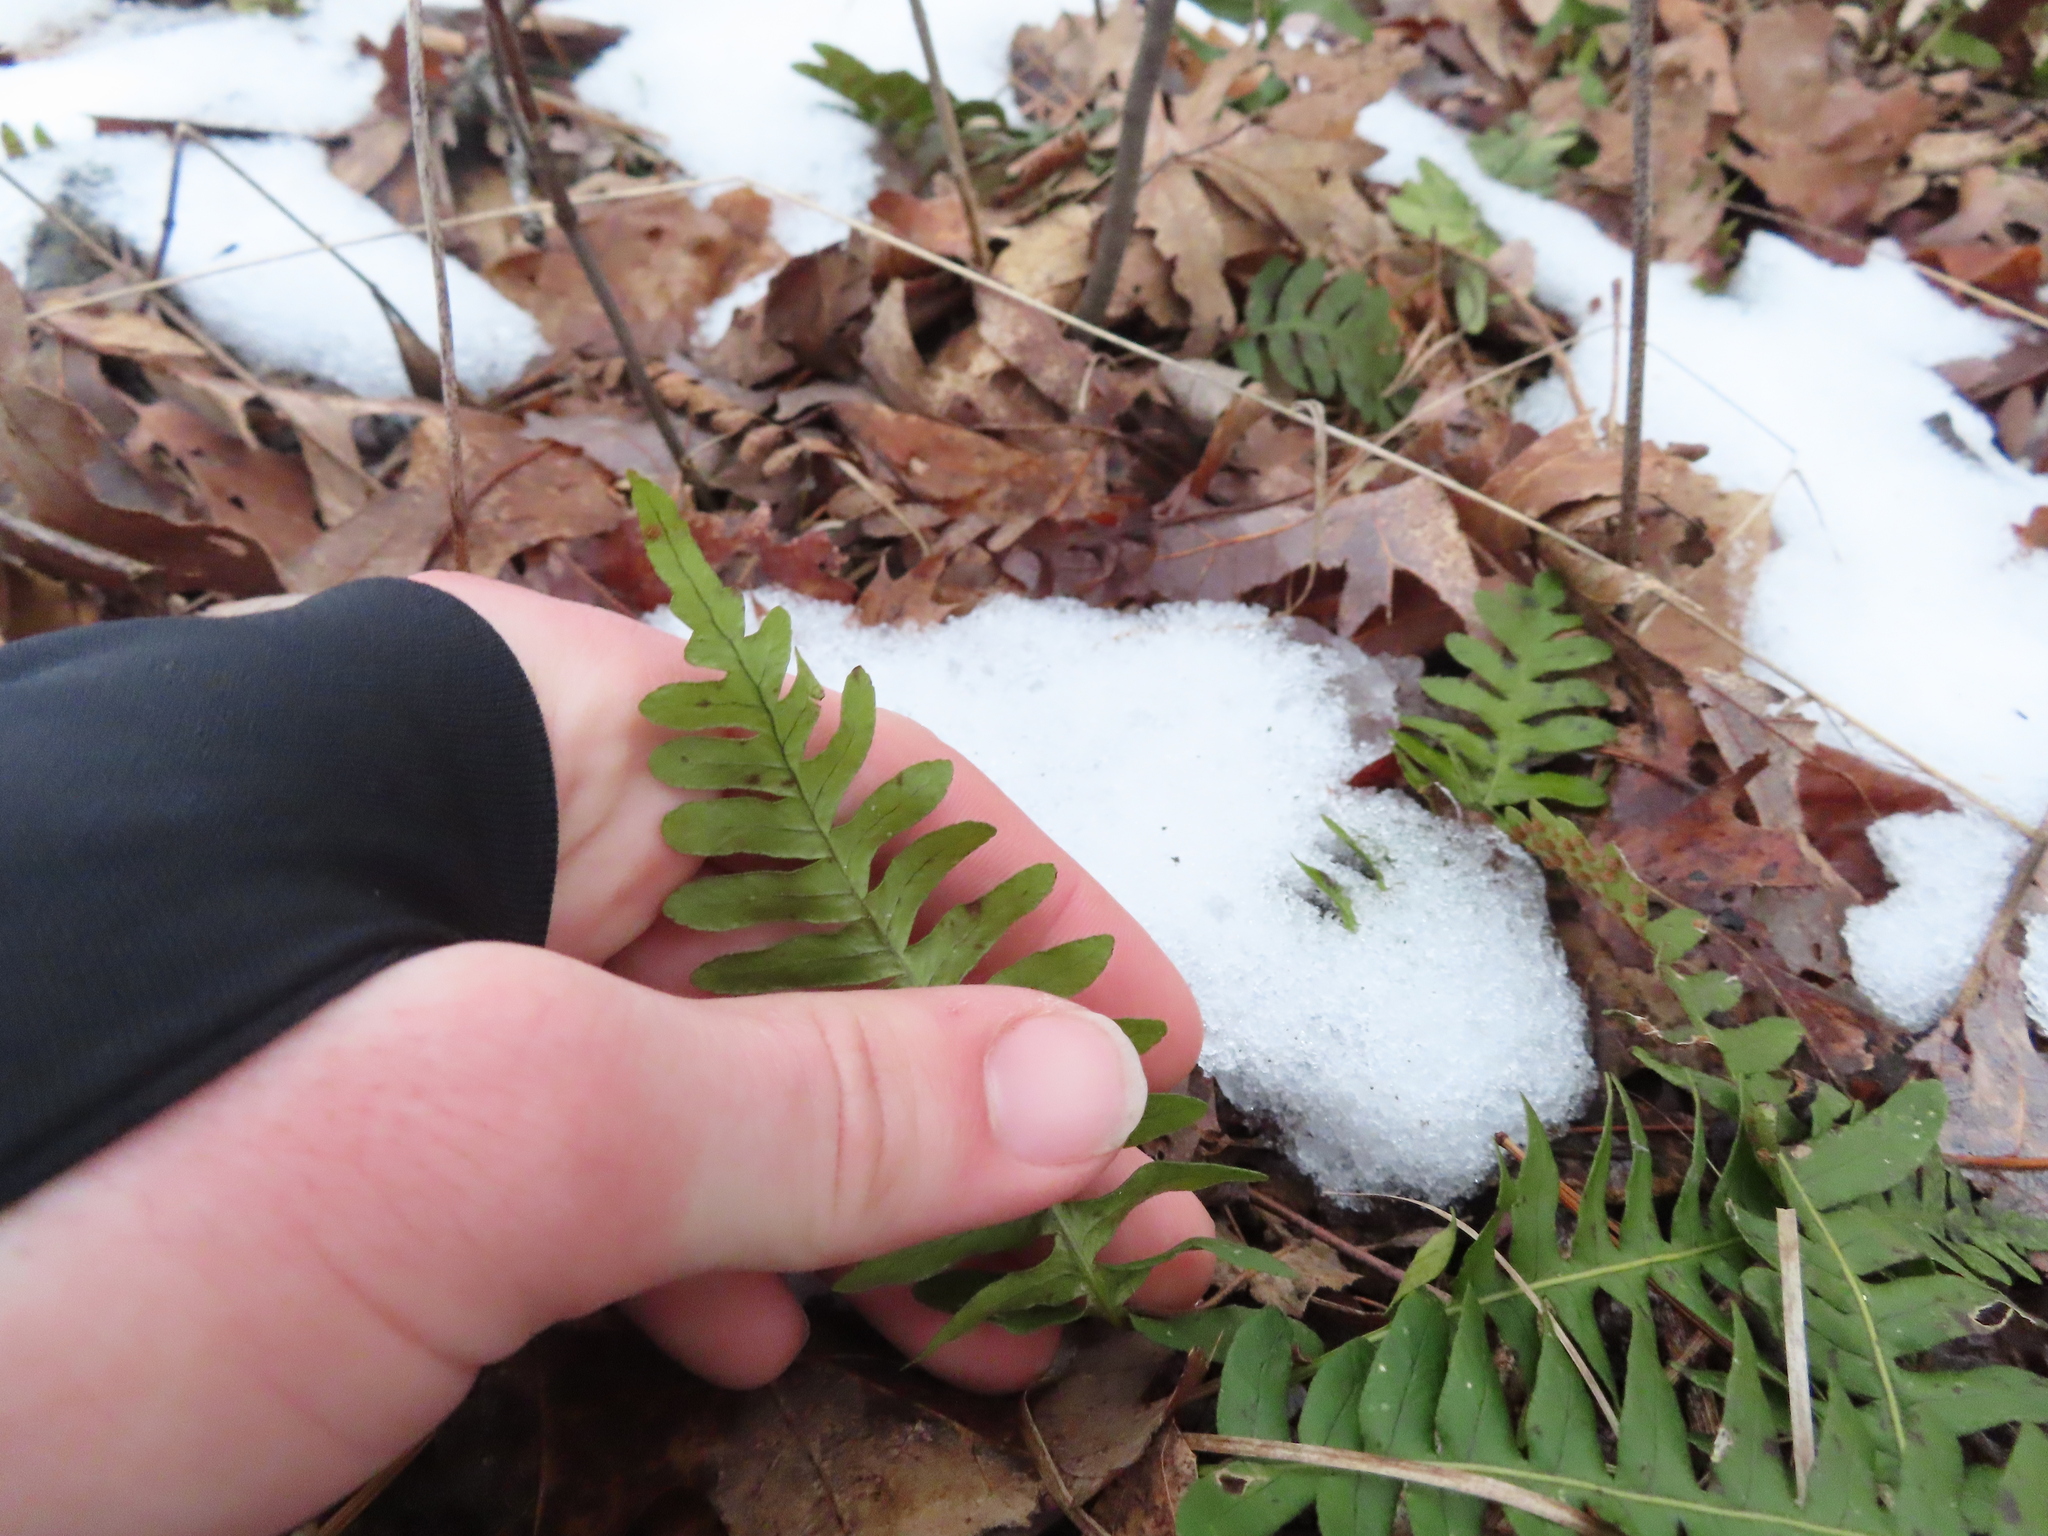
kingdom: Plantae
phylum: Tracheophyta
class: Polypodiopsida
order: Polypodiales
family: Polypodiaceae
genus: Polypodium
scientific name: Polypodium virginianum
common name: American wall fern
